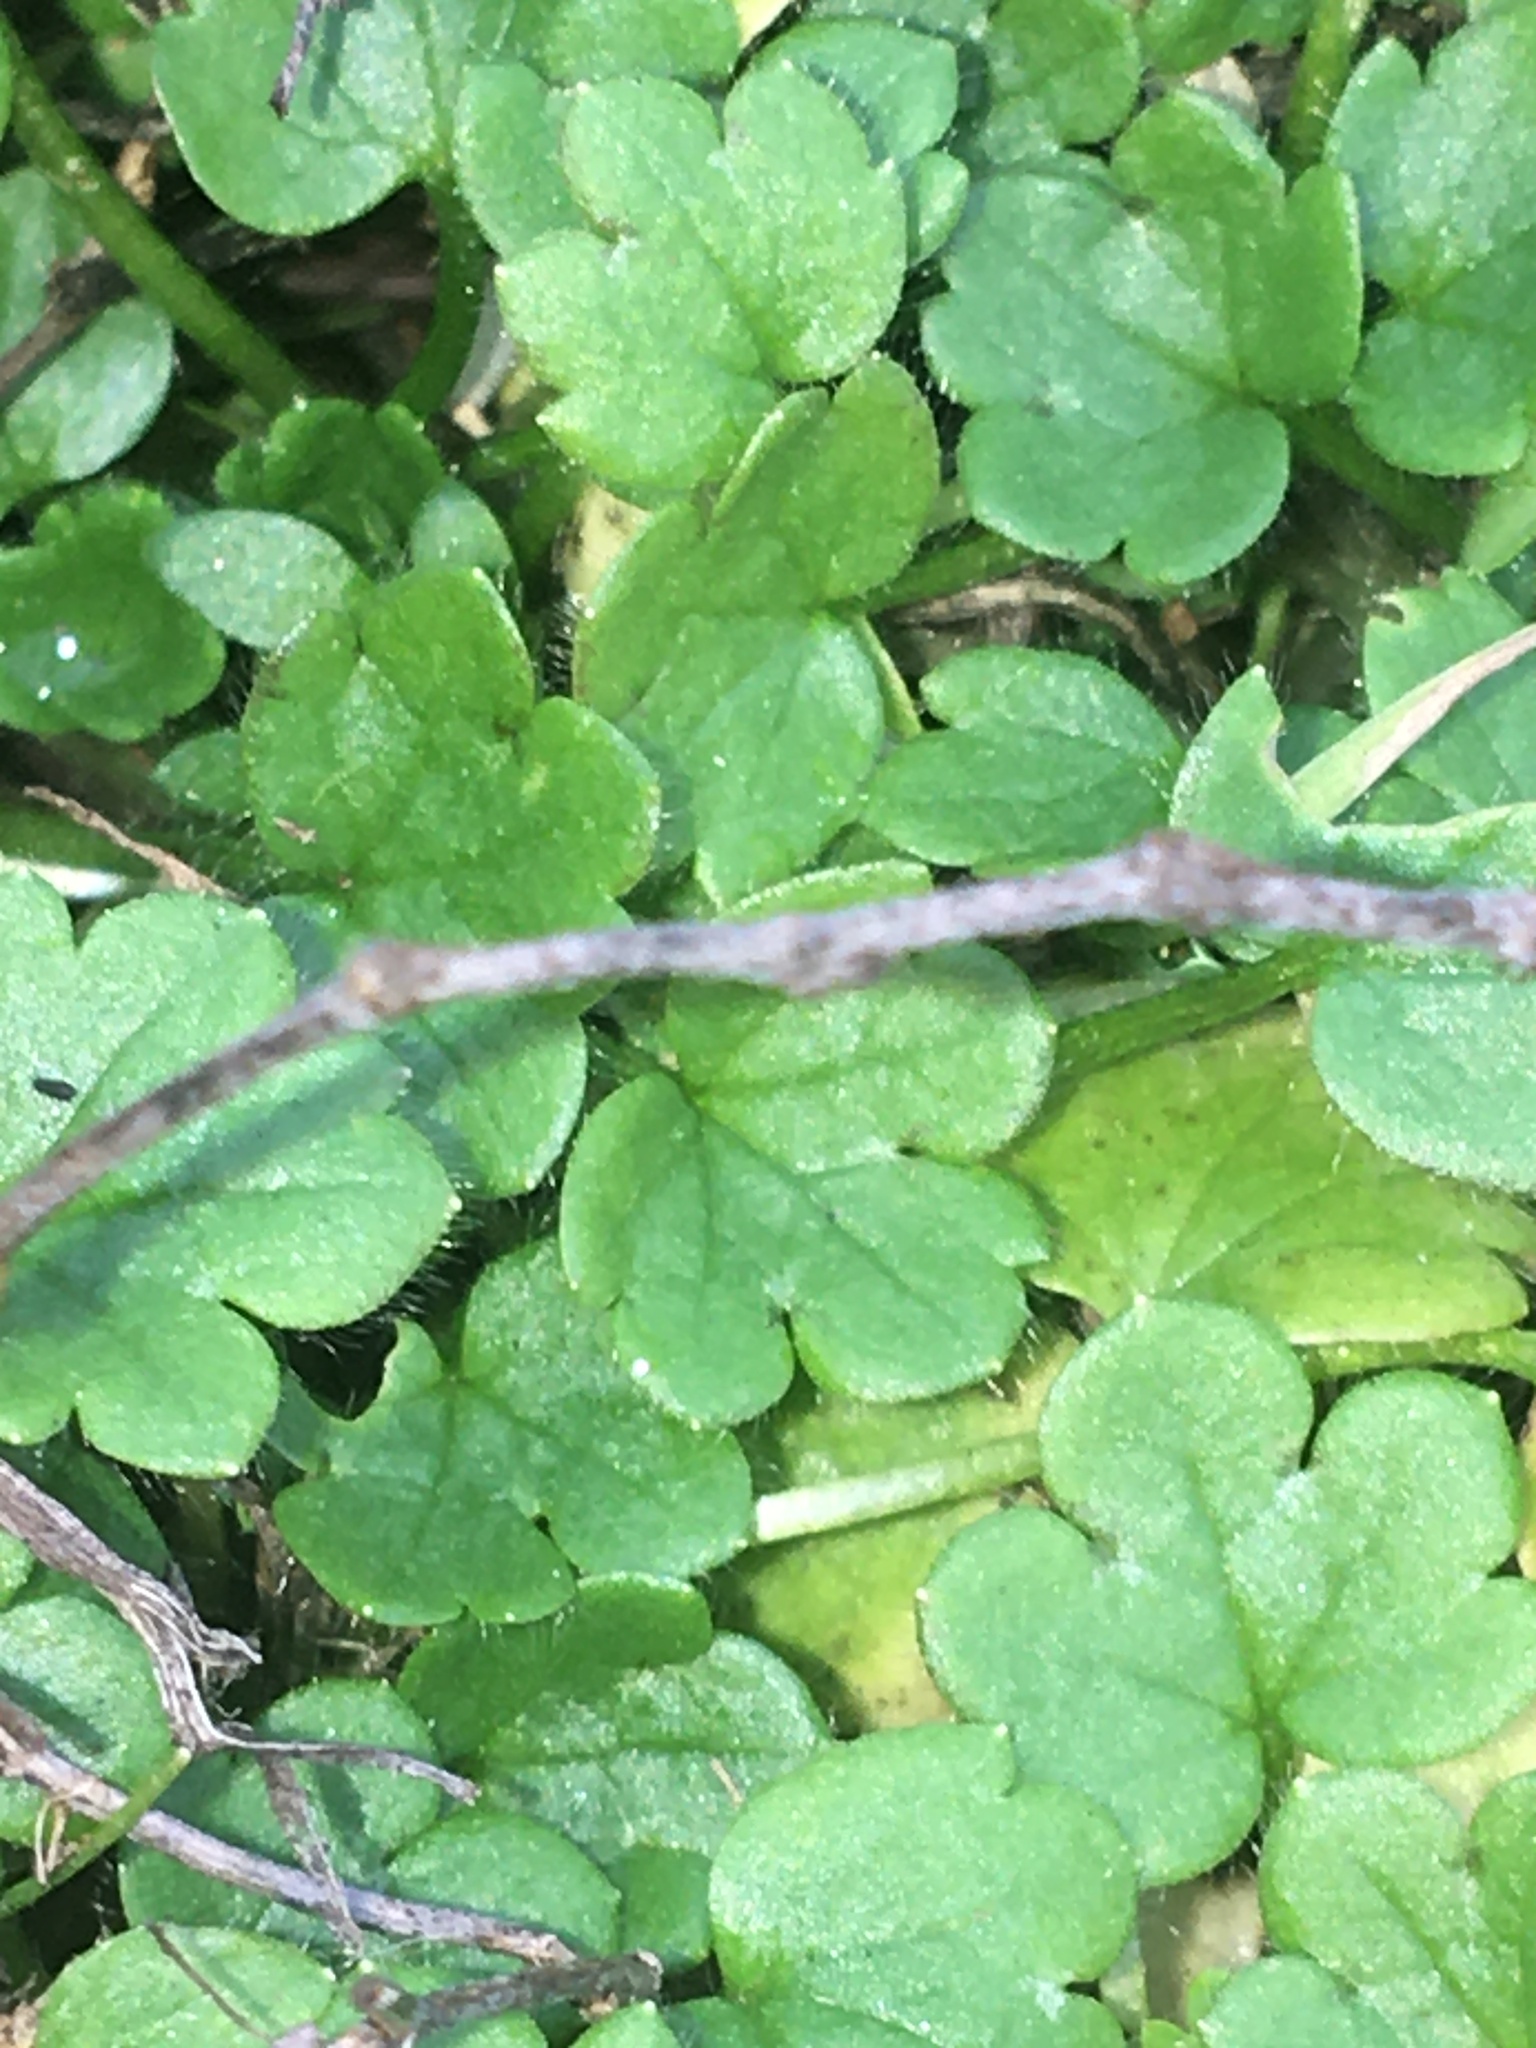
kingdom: Plantae
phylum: Tracheophyta
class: Magnoliopsida
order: Ranunculales
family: Ranunculaceae
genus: Ranunculus
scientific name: Ranunculus parviflorus
